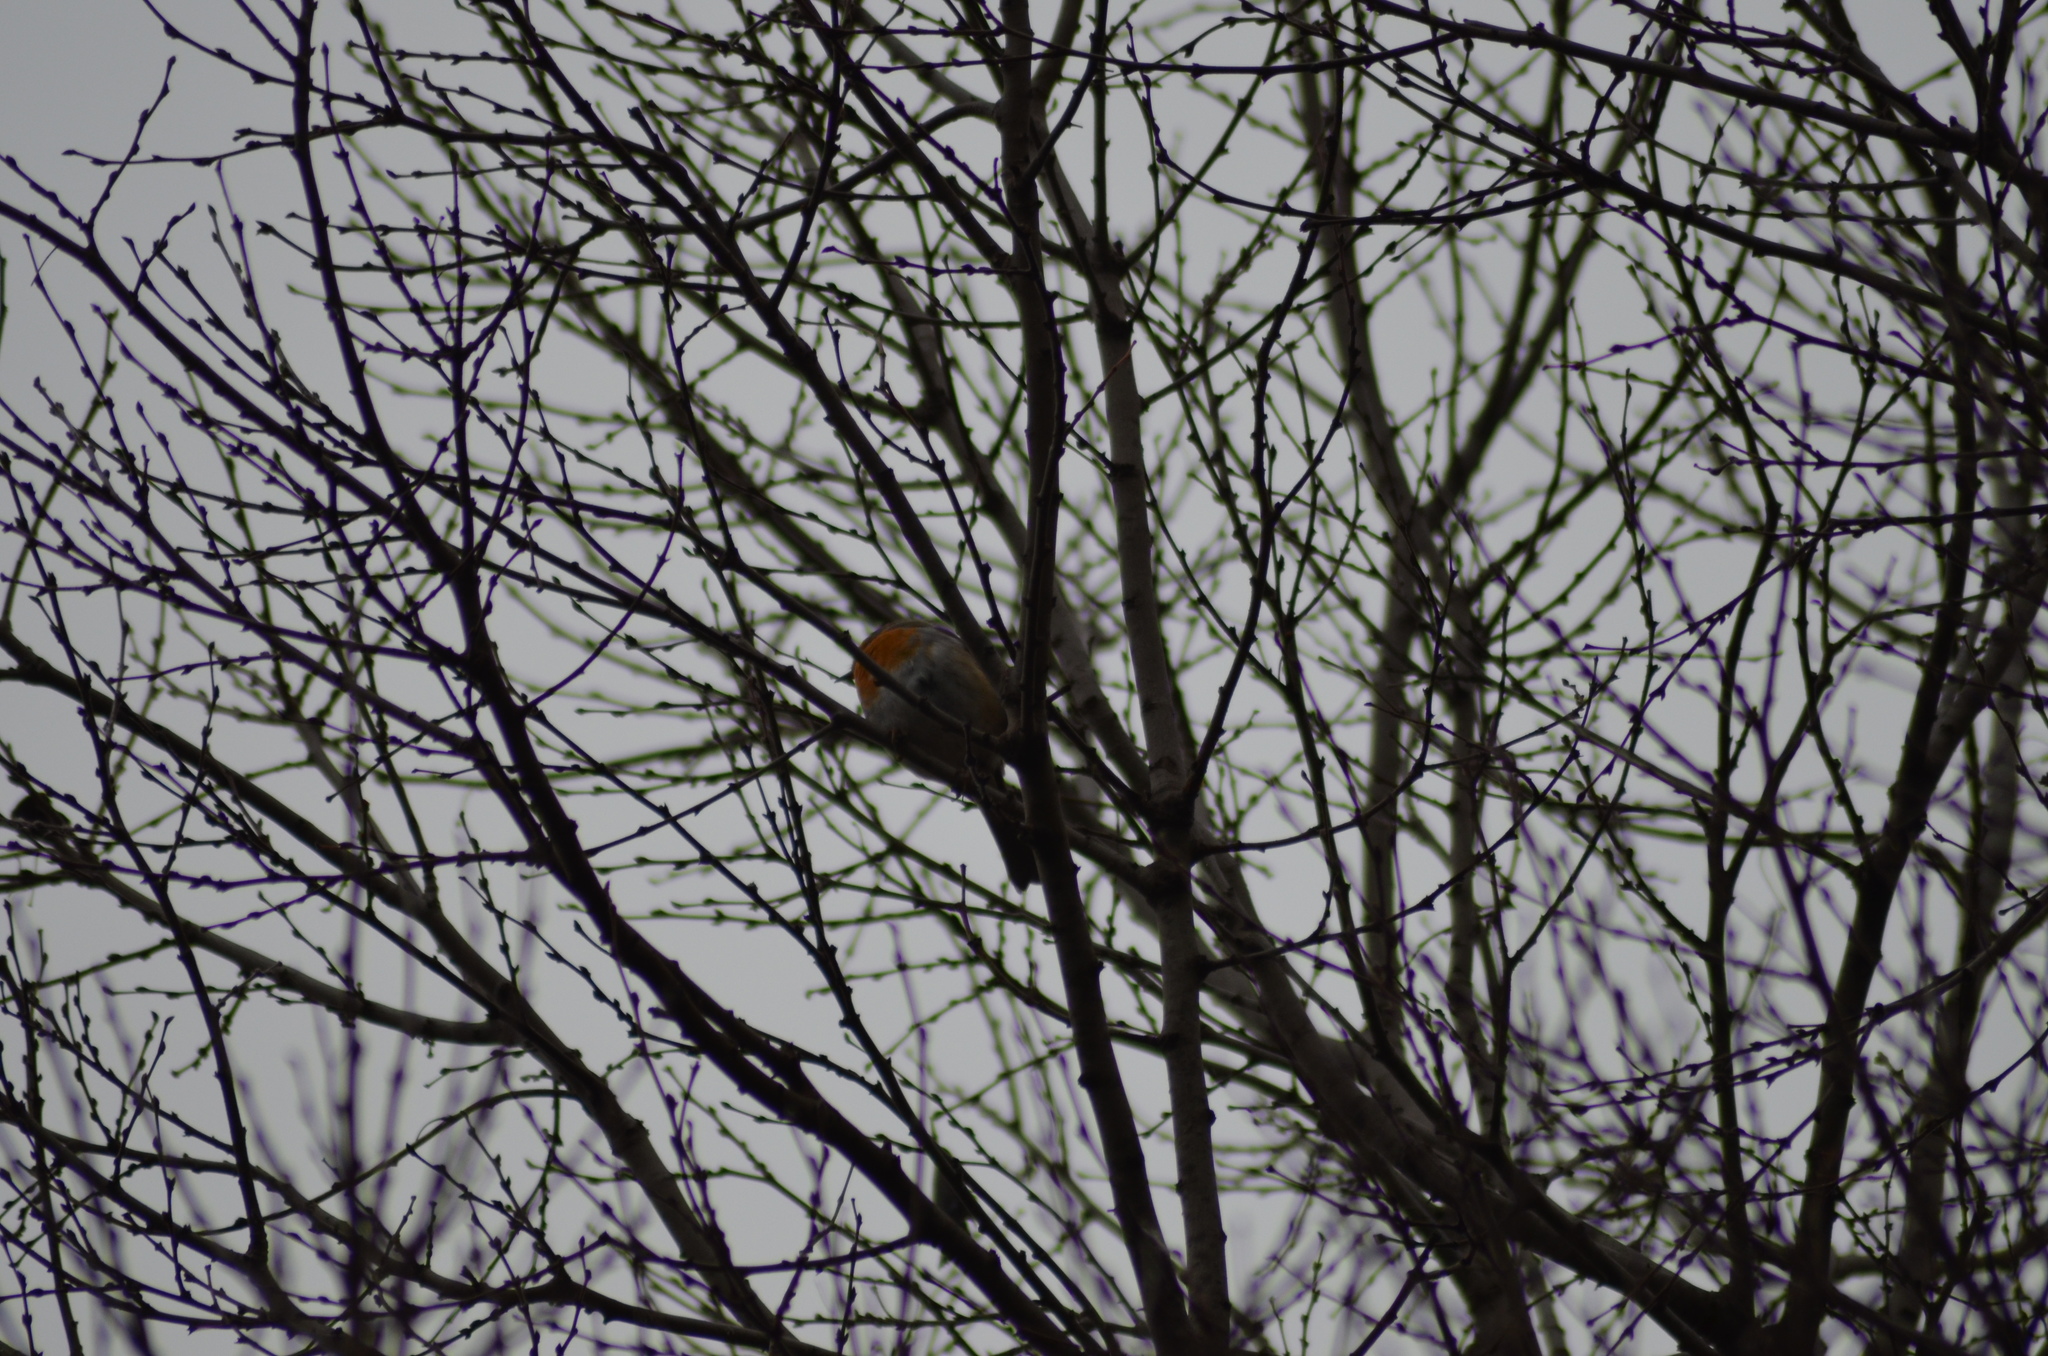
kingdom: Animalia
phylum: Chordata
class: Aves
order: Passeriformes
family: Muscicapidae
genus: Erithacus
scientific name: Erithacus rubecula
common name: European robin
